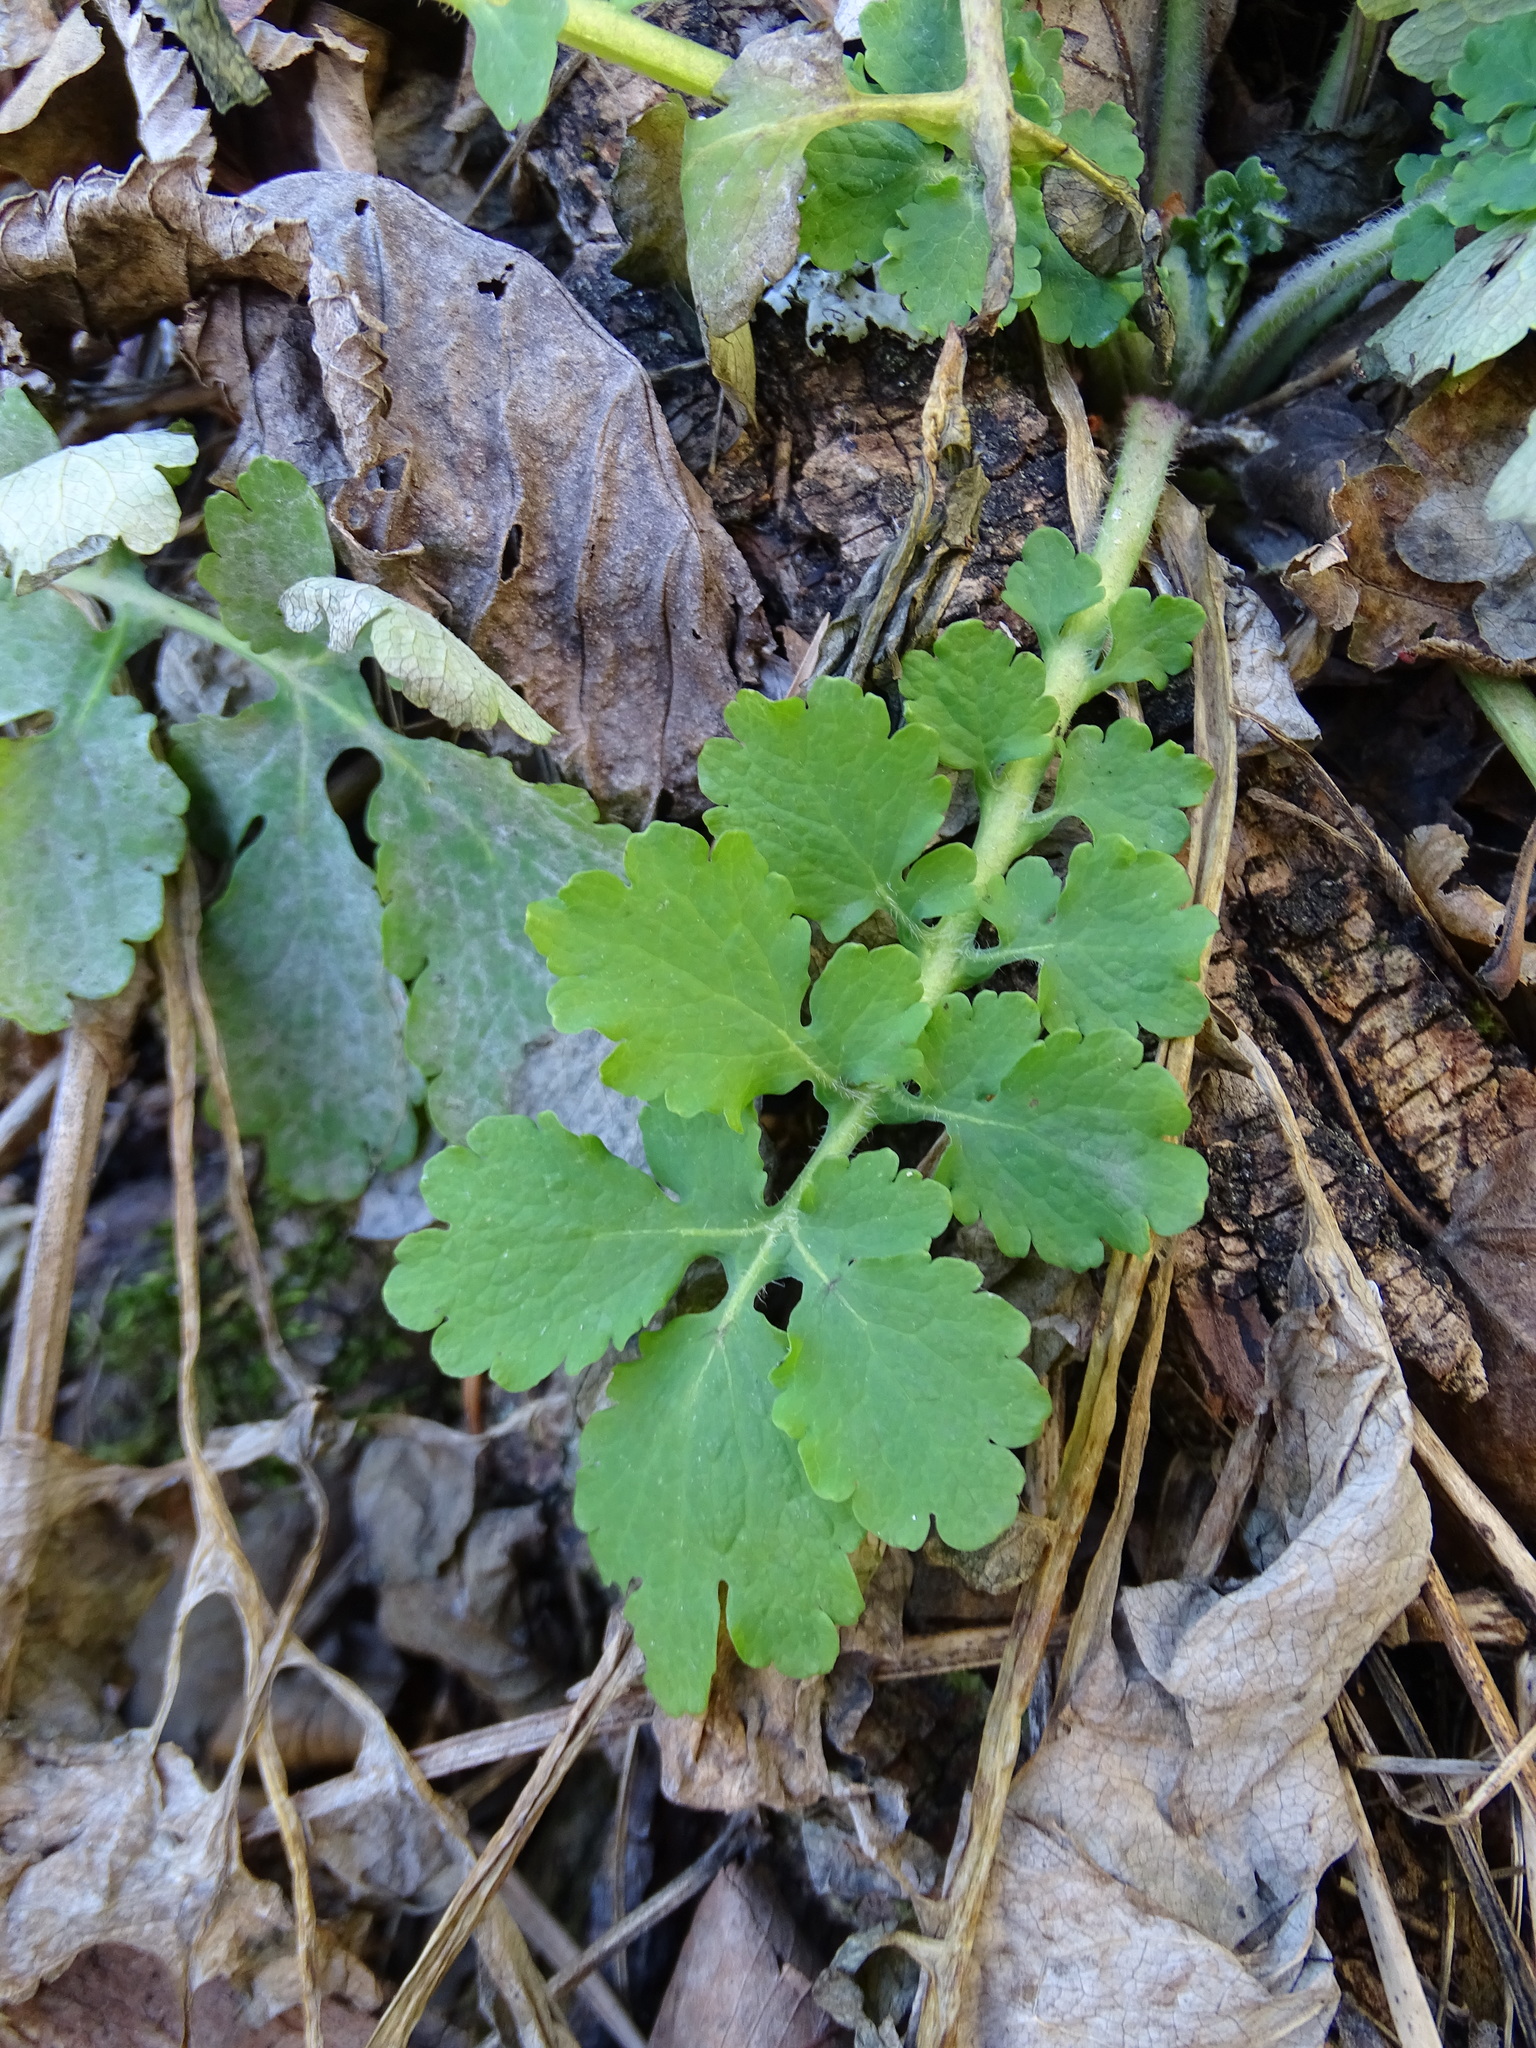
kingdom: Plantae
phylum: Tracheophyta
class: Magnoliopsida
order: Ranunculales
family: Papaveraceae
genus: Chelidonium
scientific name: Chelidonium majus
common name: Greater celandine
